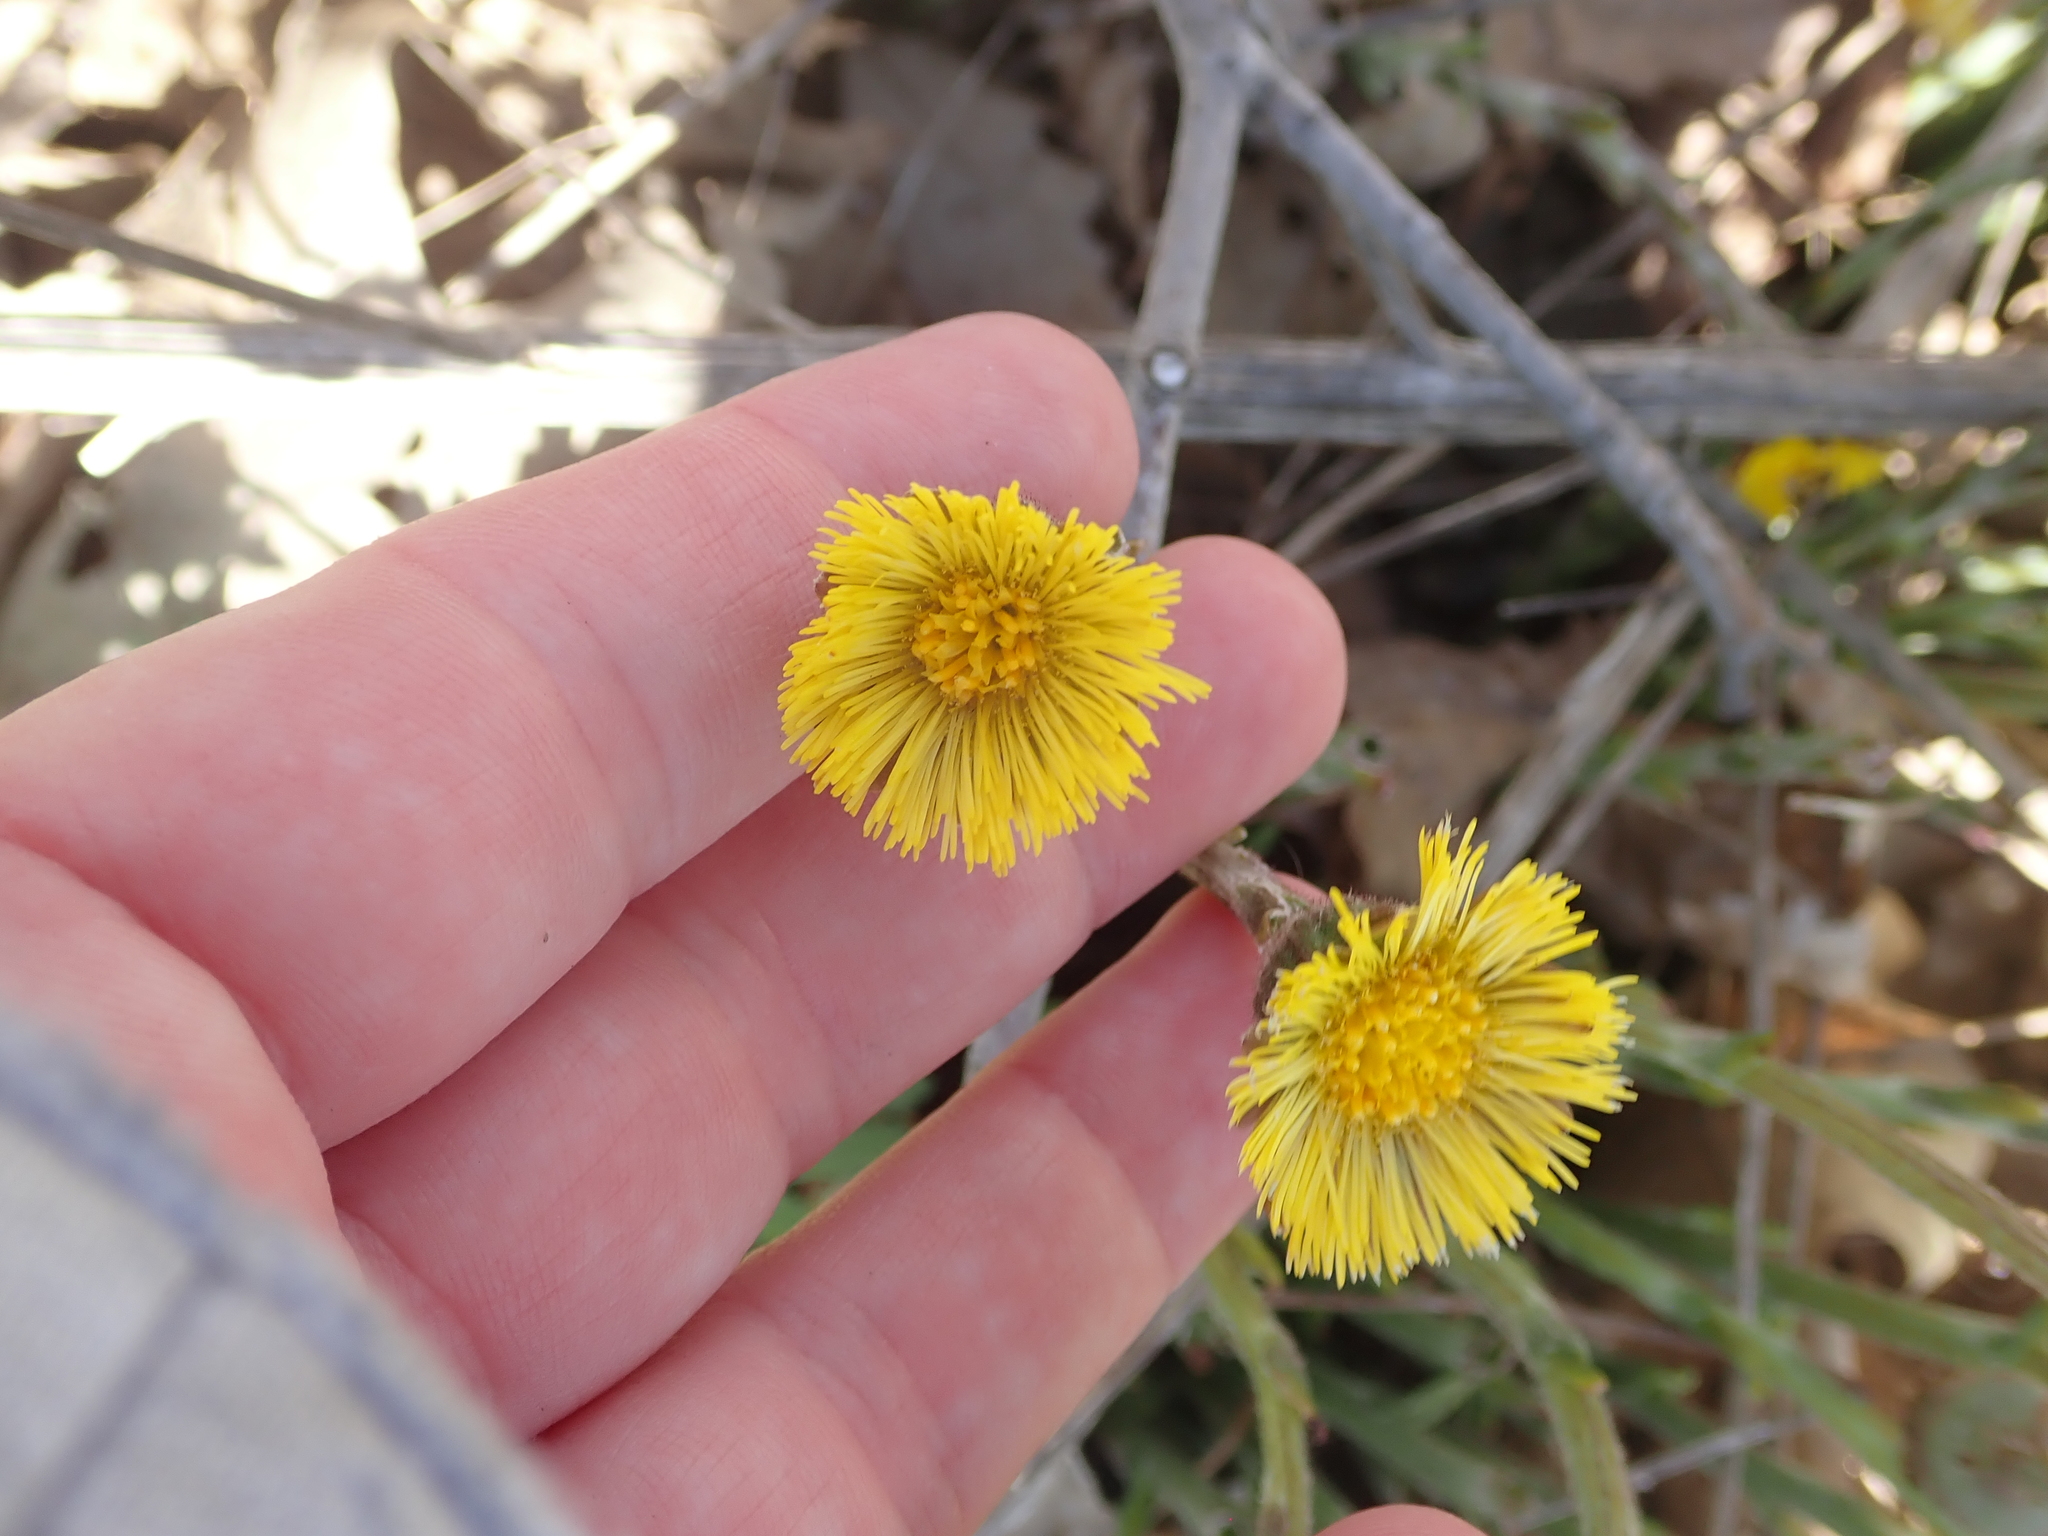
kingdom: Plantae
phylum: Tracheophyta
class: Magnoliopsida
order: Asterales
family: Asteraceae
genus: Tussilago
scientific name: Tussilago farfara
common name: Coltsfoot
